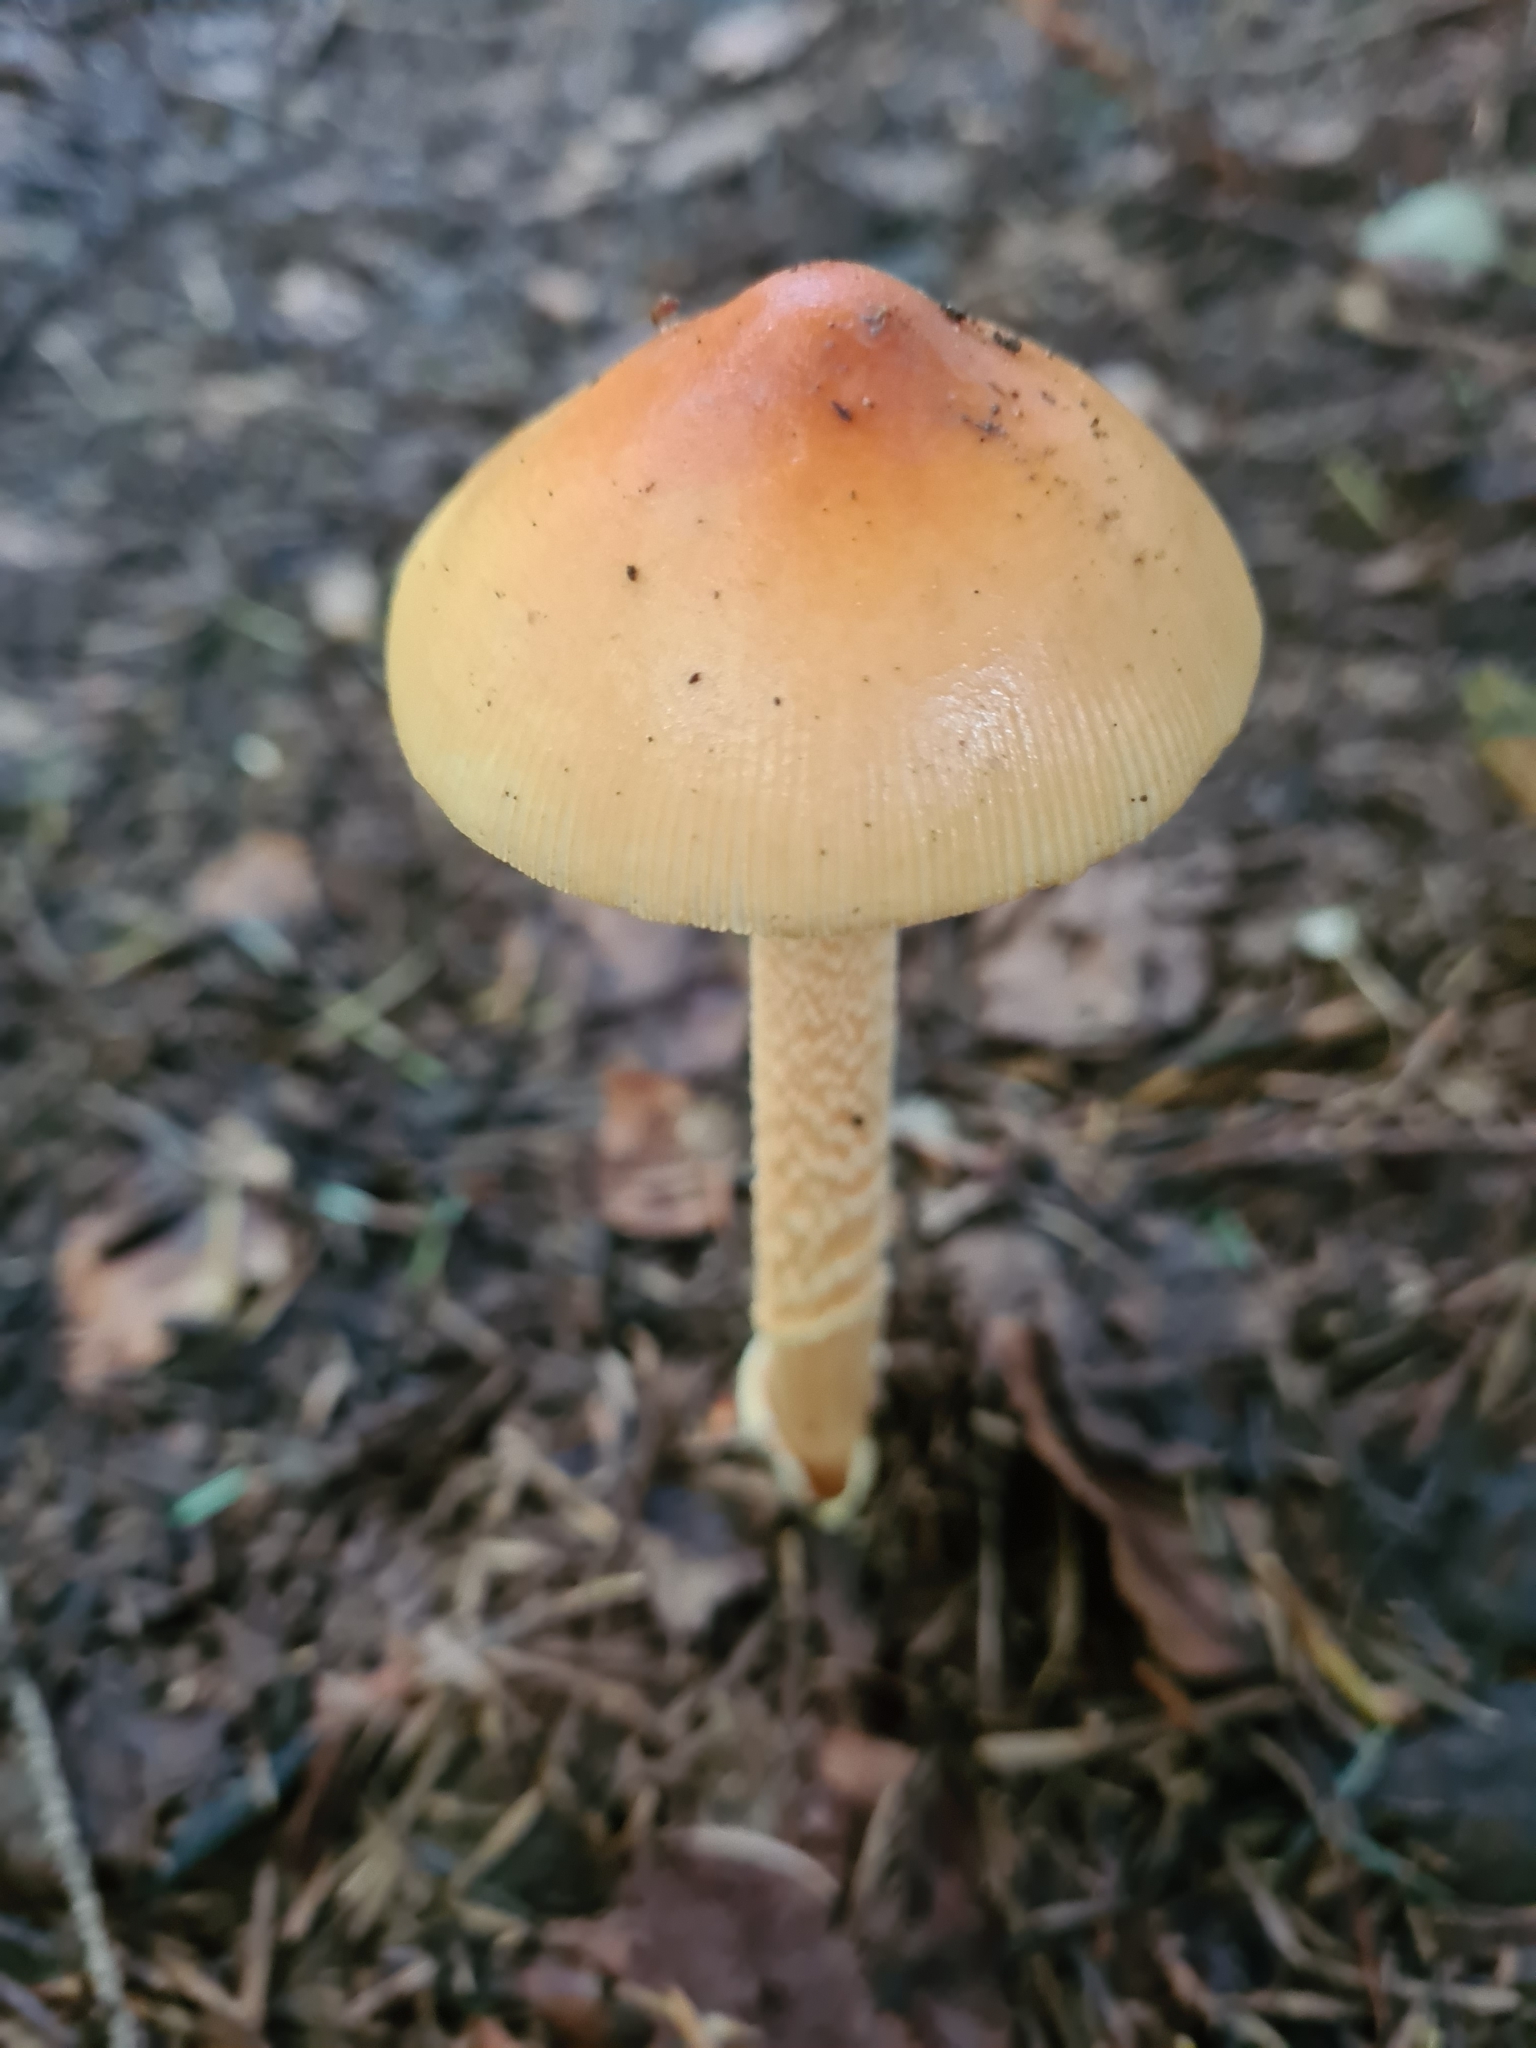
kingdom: Fungi
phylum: Basidiomycota
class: Agaricomycetes
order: Agaricales
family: Amanitaceae
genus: Amanita
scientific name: Amanita crocea
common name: Orange grisette
